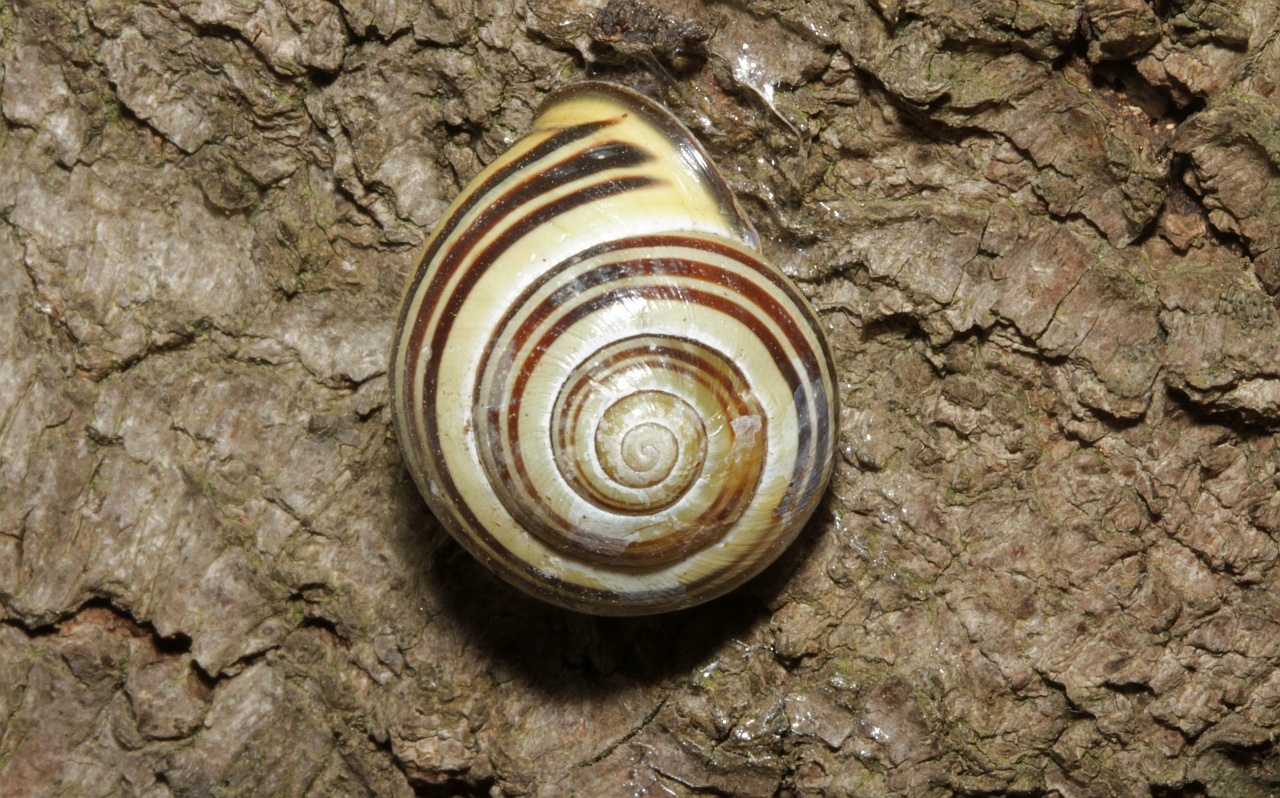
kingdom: Animalia
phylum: Mollusca
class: Gastropoda
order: Stylommatophora
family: Helicidae
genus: Cepaea
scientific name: Cepaea nemoralis
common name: Grovesnail
